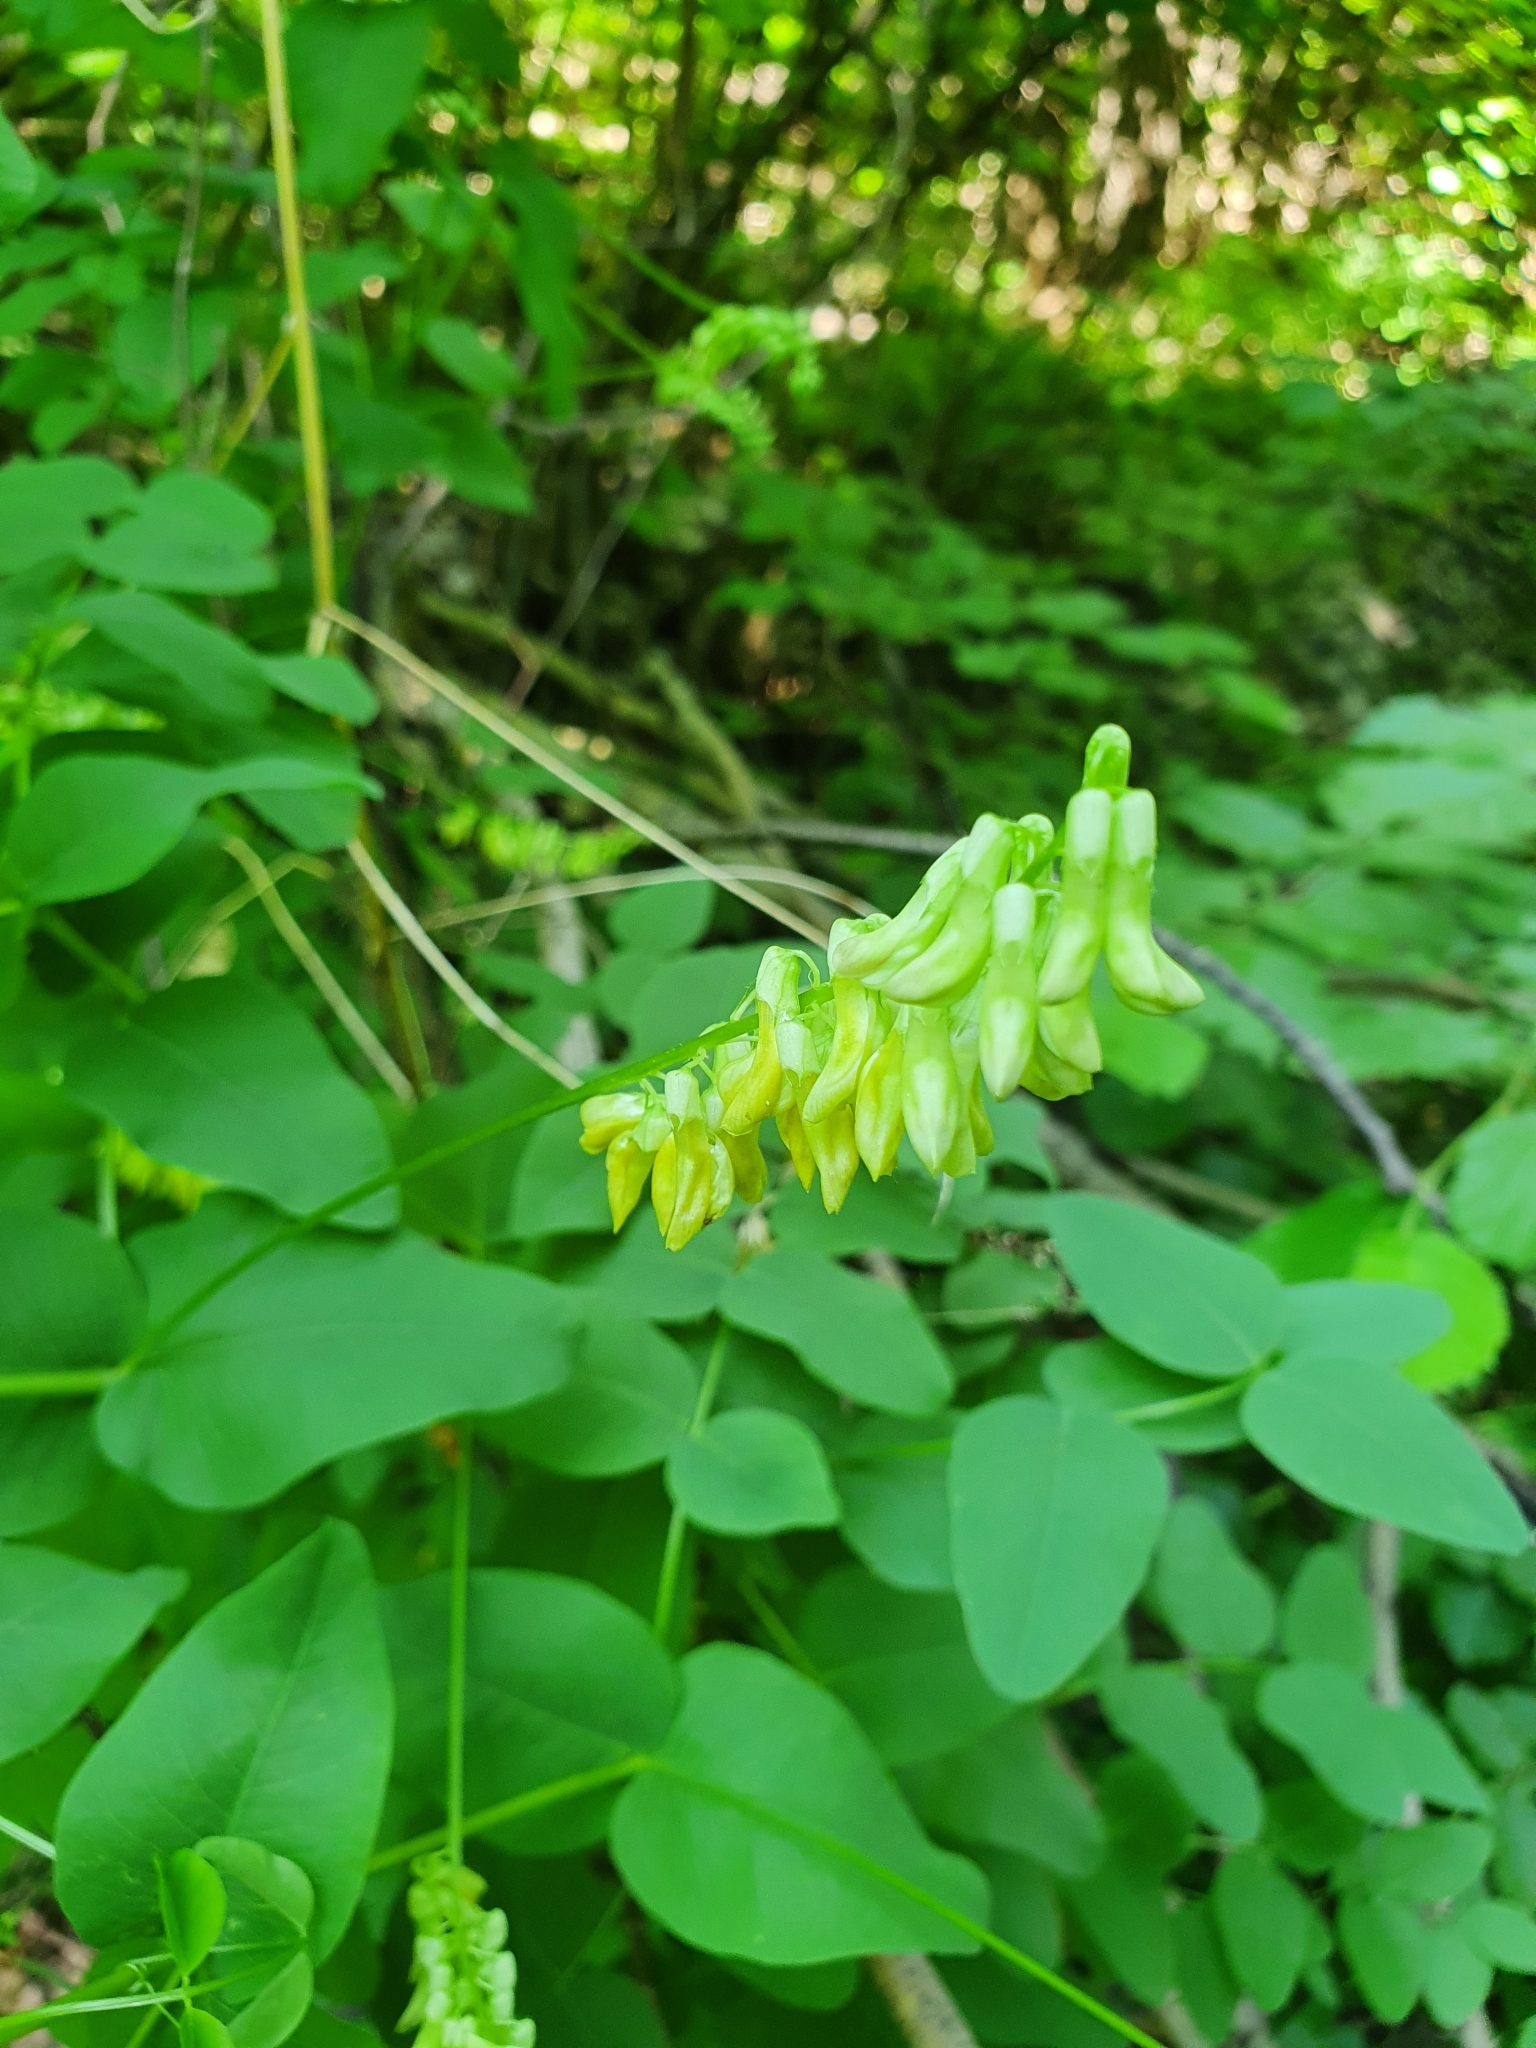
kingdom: Plantae
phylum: Tracheophyta
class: Magnoliopsida
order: Fabales
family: Fabaceae
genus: Vicia
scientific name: Vicia pisiformis
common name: Pale-flower vetch
